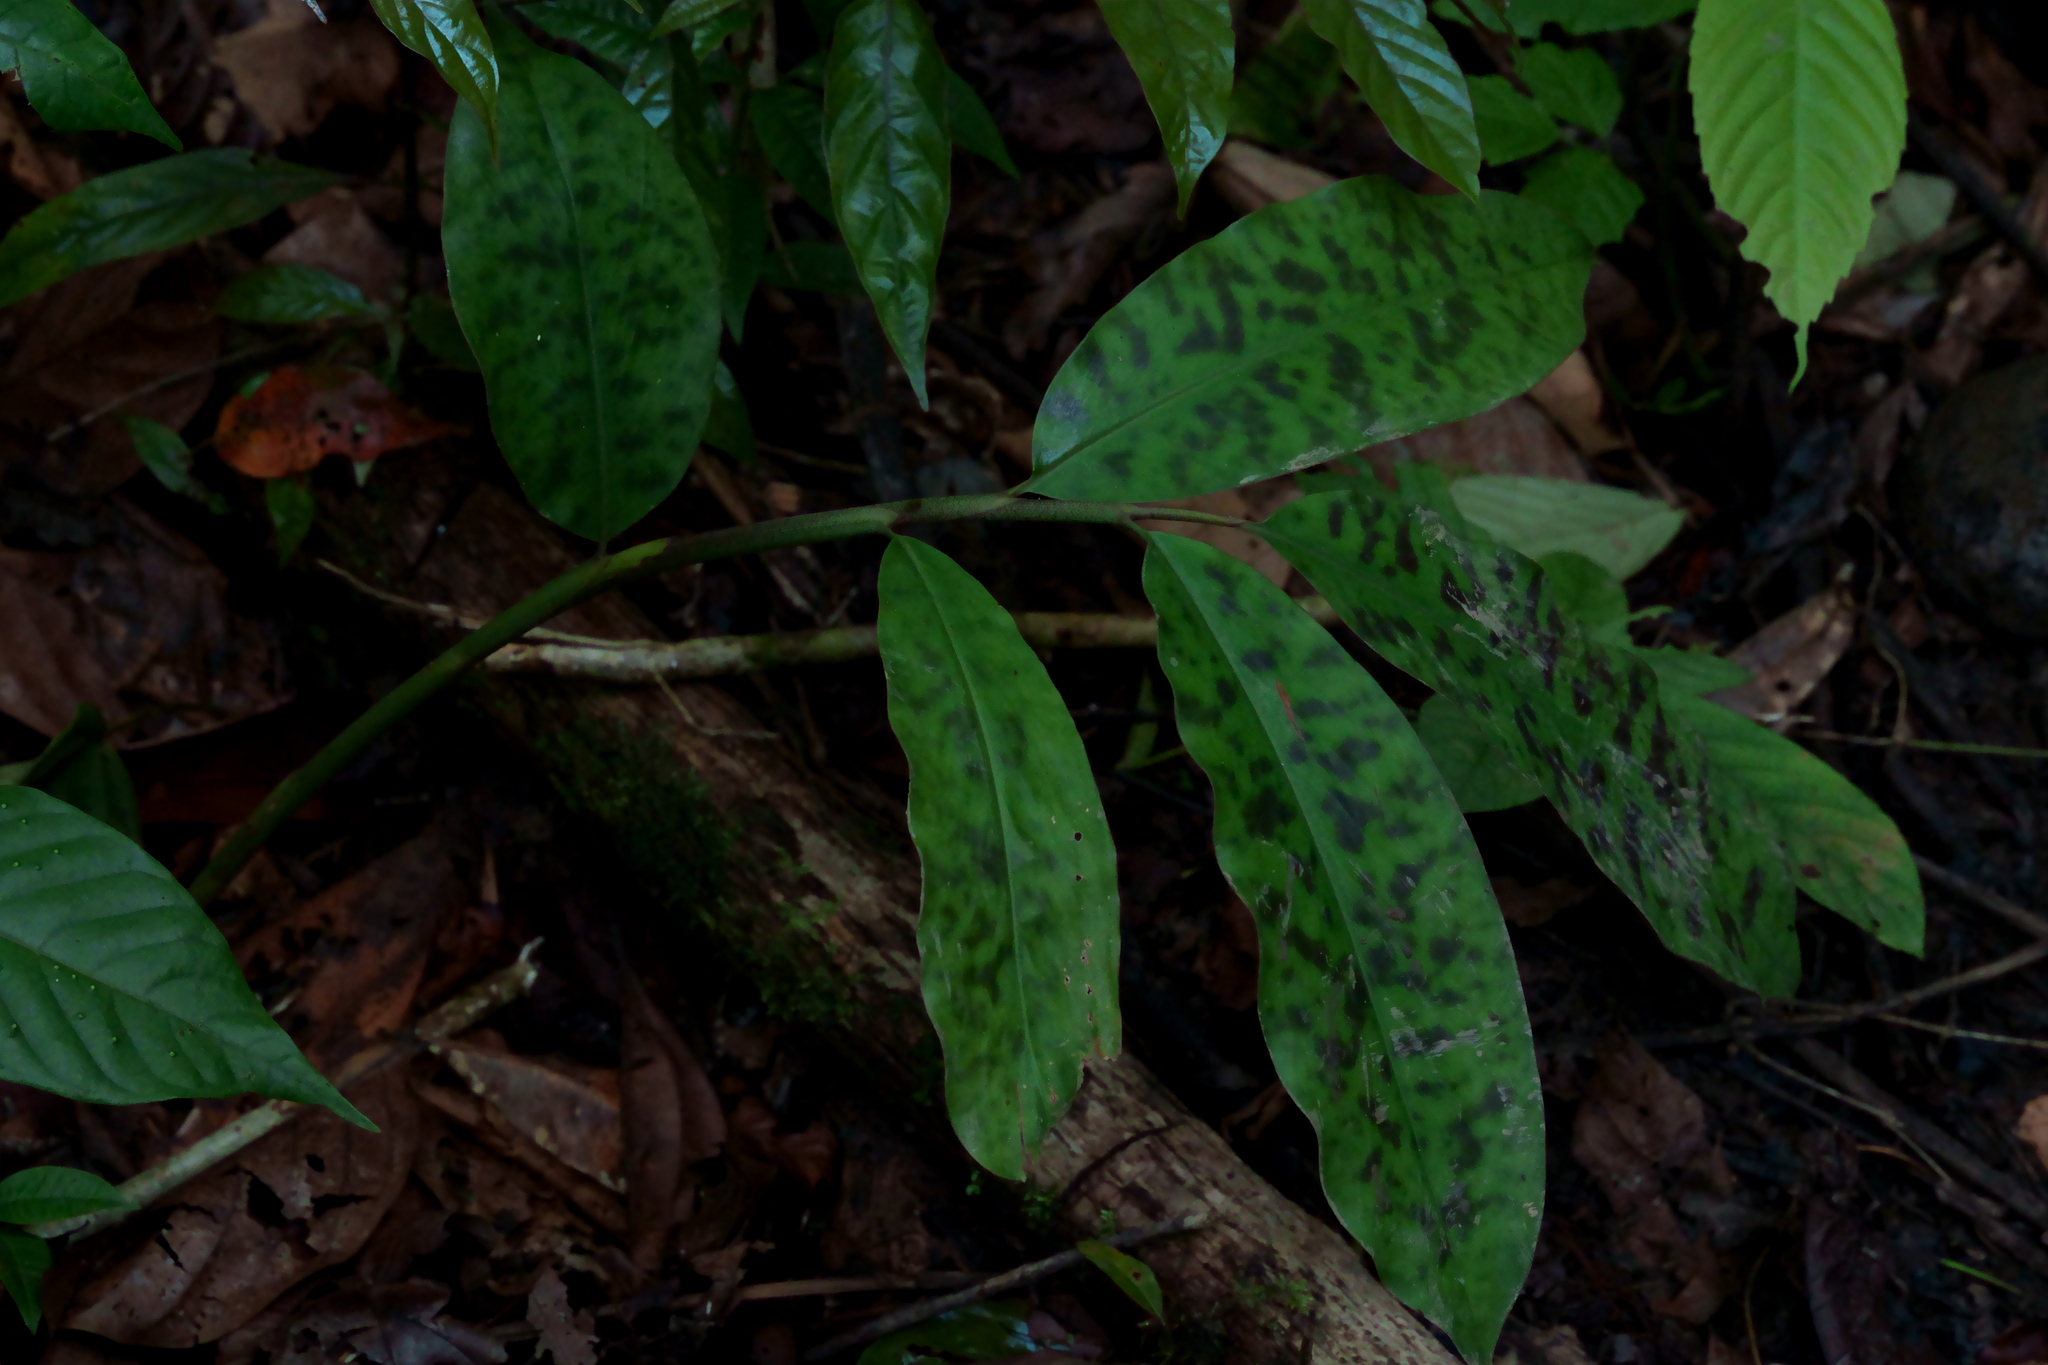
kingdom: Plantae
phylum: Tracheophyta
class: Liliopsida
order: Zingiberales
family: Zingiberaceae
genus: Etlingera
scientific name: Etlingera brevilabrum
